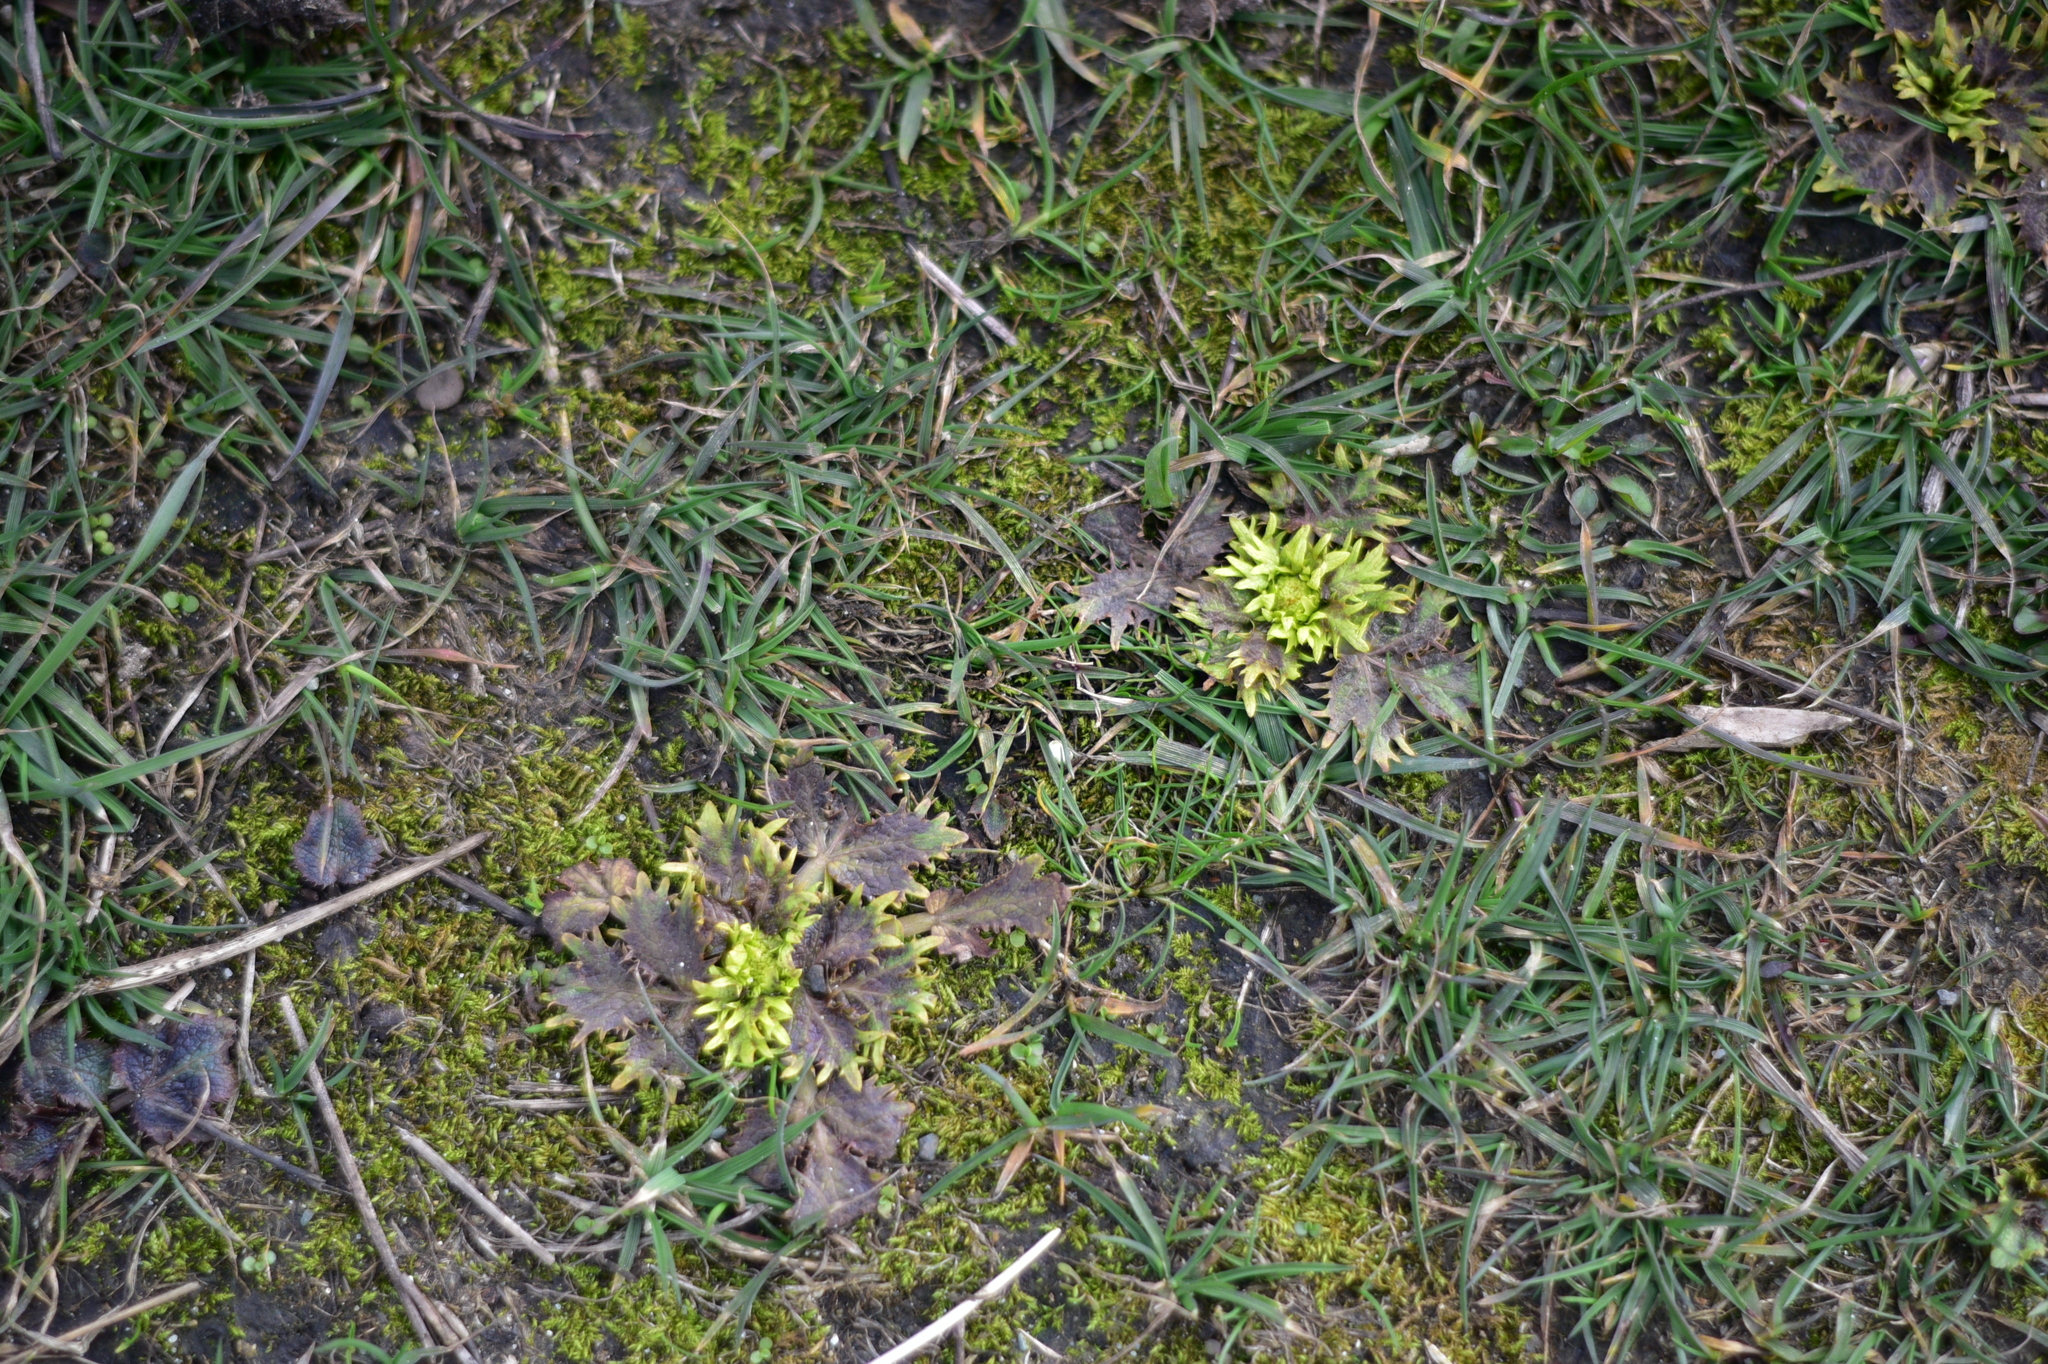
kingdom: Plantae
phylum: Tracheophyta
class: Magnoliopsida
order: Apiales
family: Apiaceae
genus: Sanicula
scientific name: Sanicula arctopoides
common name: Footsteps-of-spring
